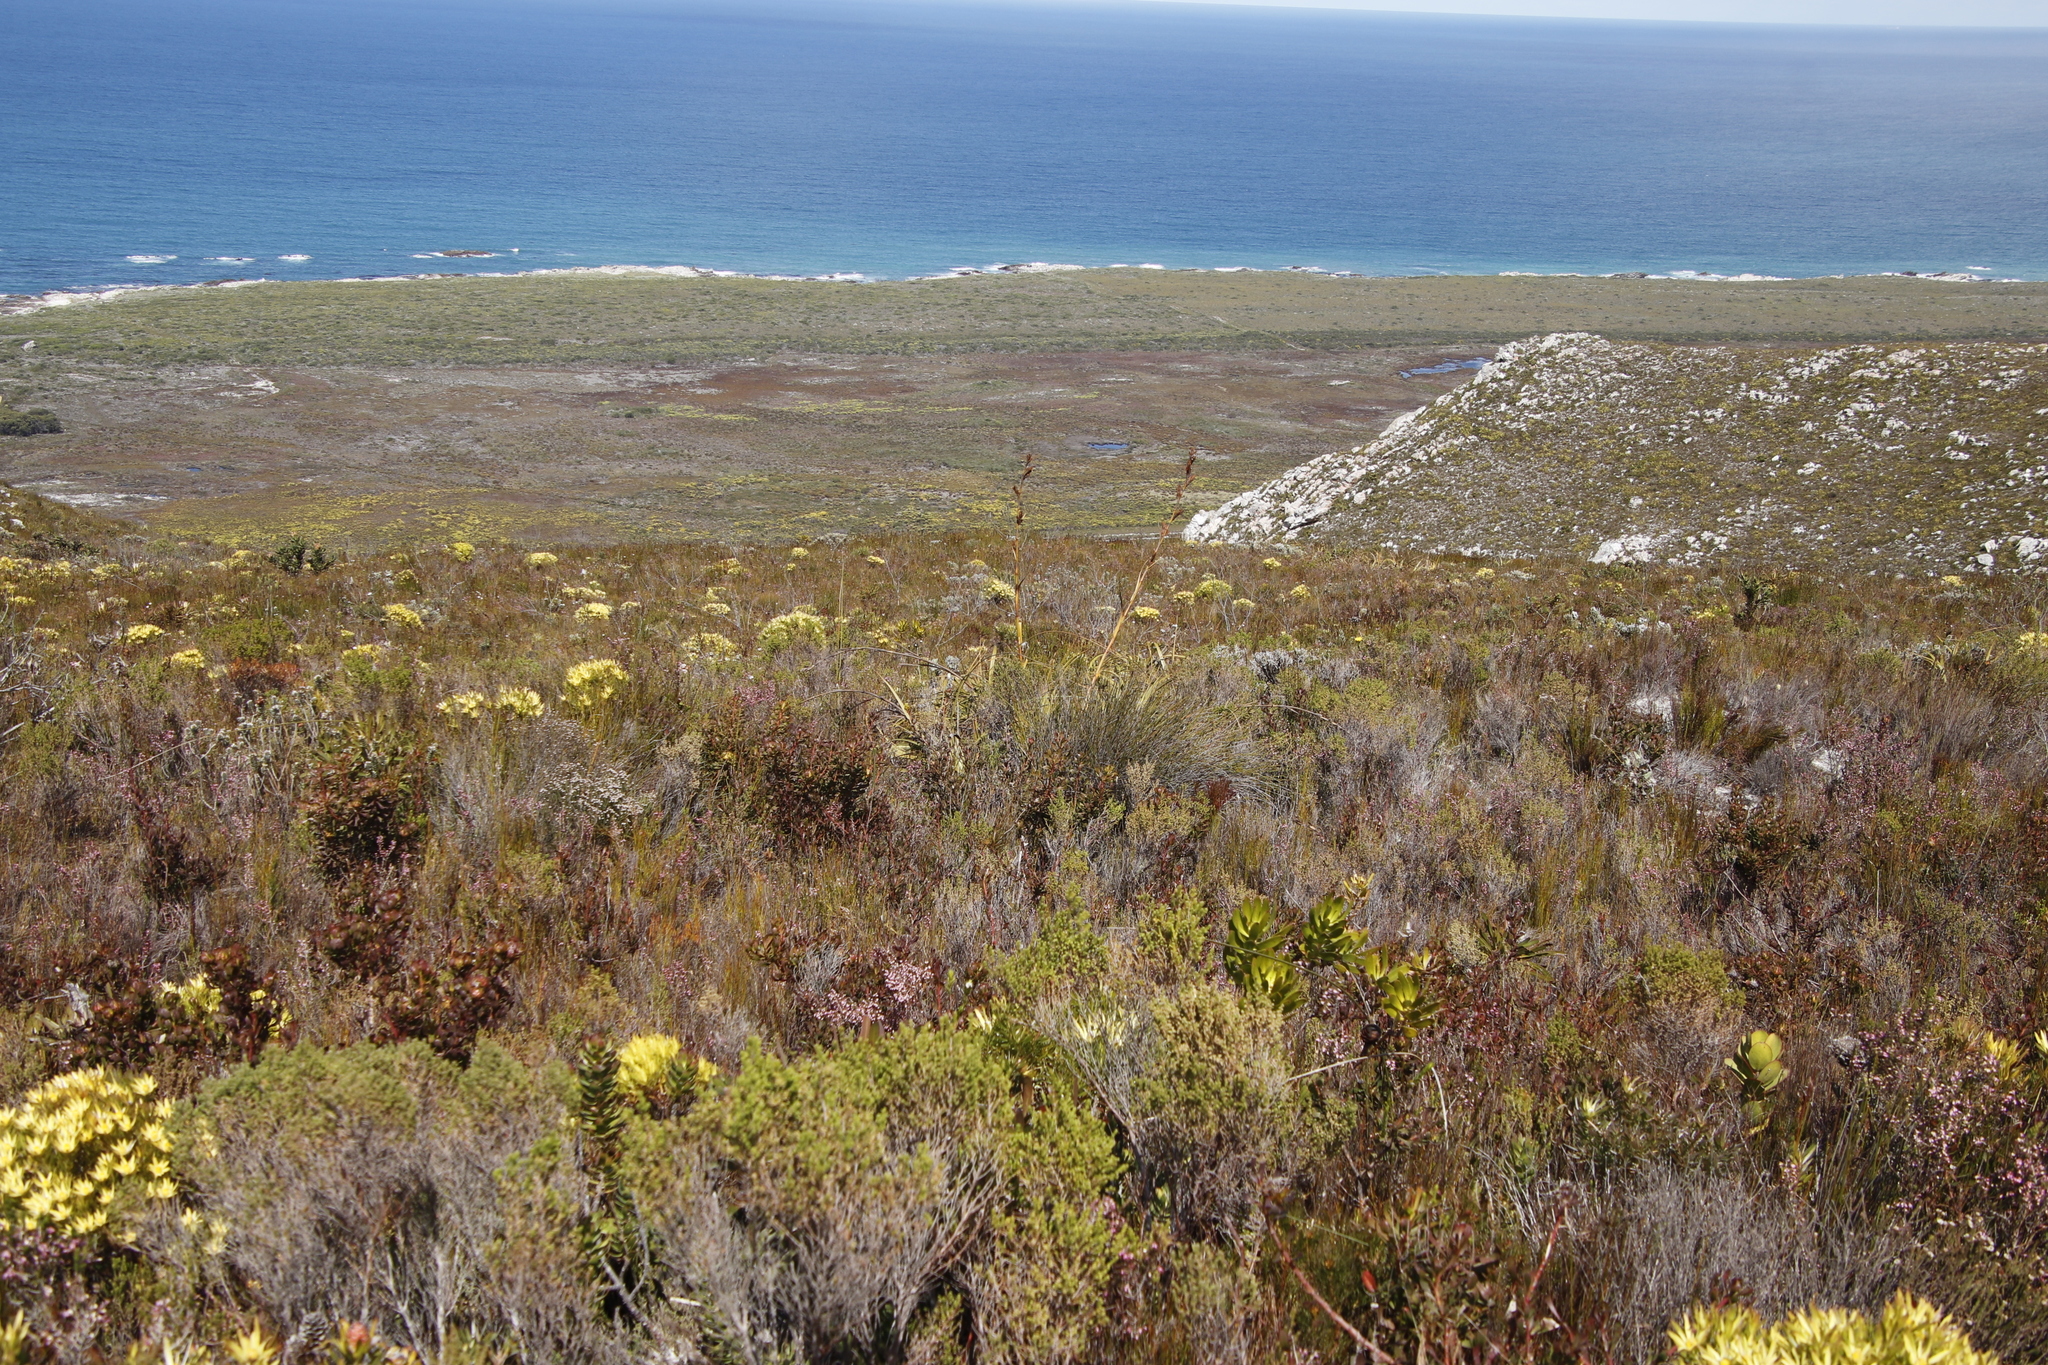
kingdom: Plantae
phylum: Tracheophyta
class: Liliopsida
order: Poales
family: Cyperaceae
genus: Tetraria
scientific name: Tetraria thermalis
